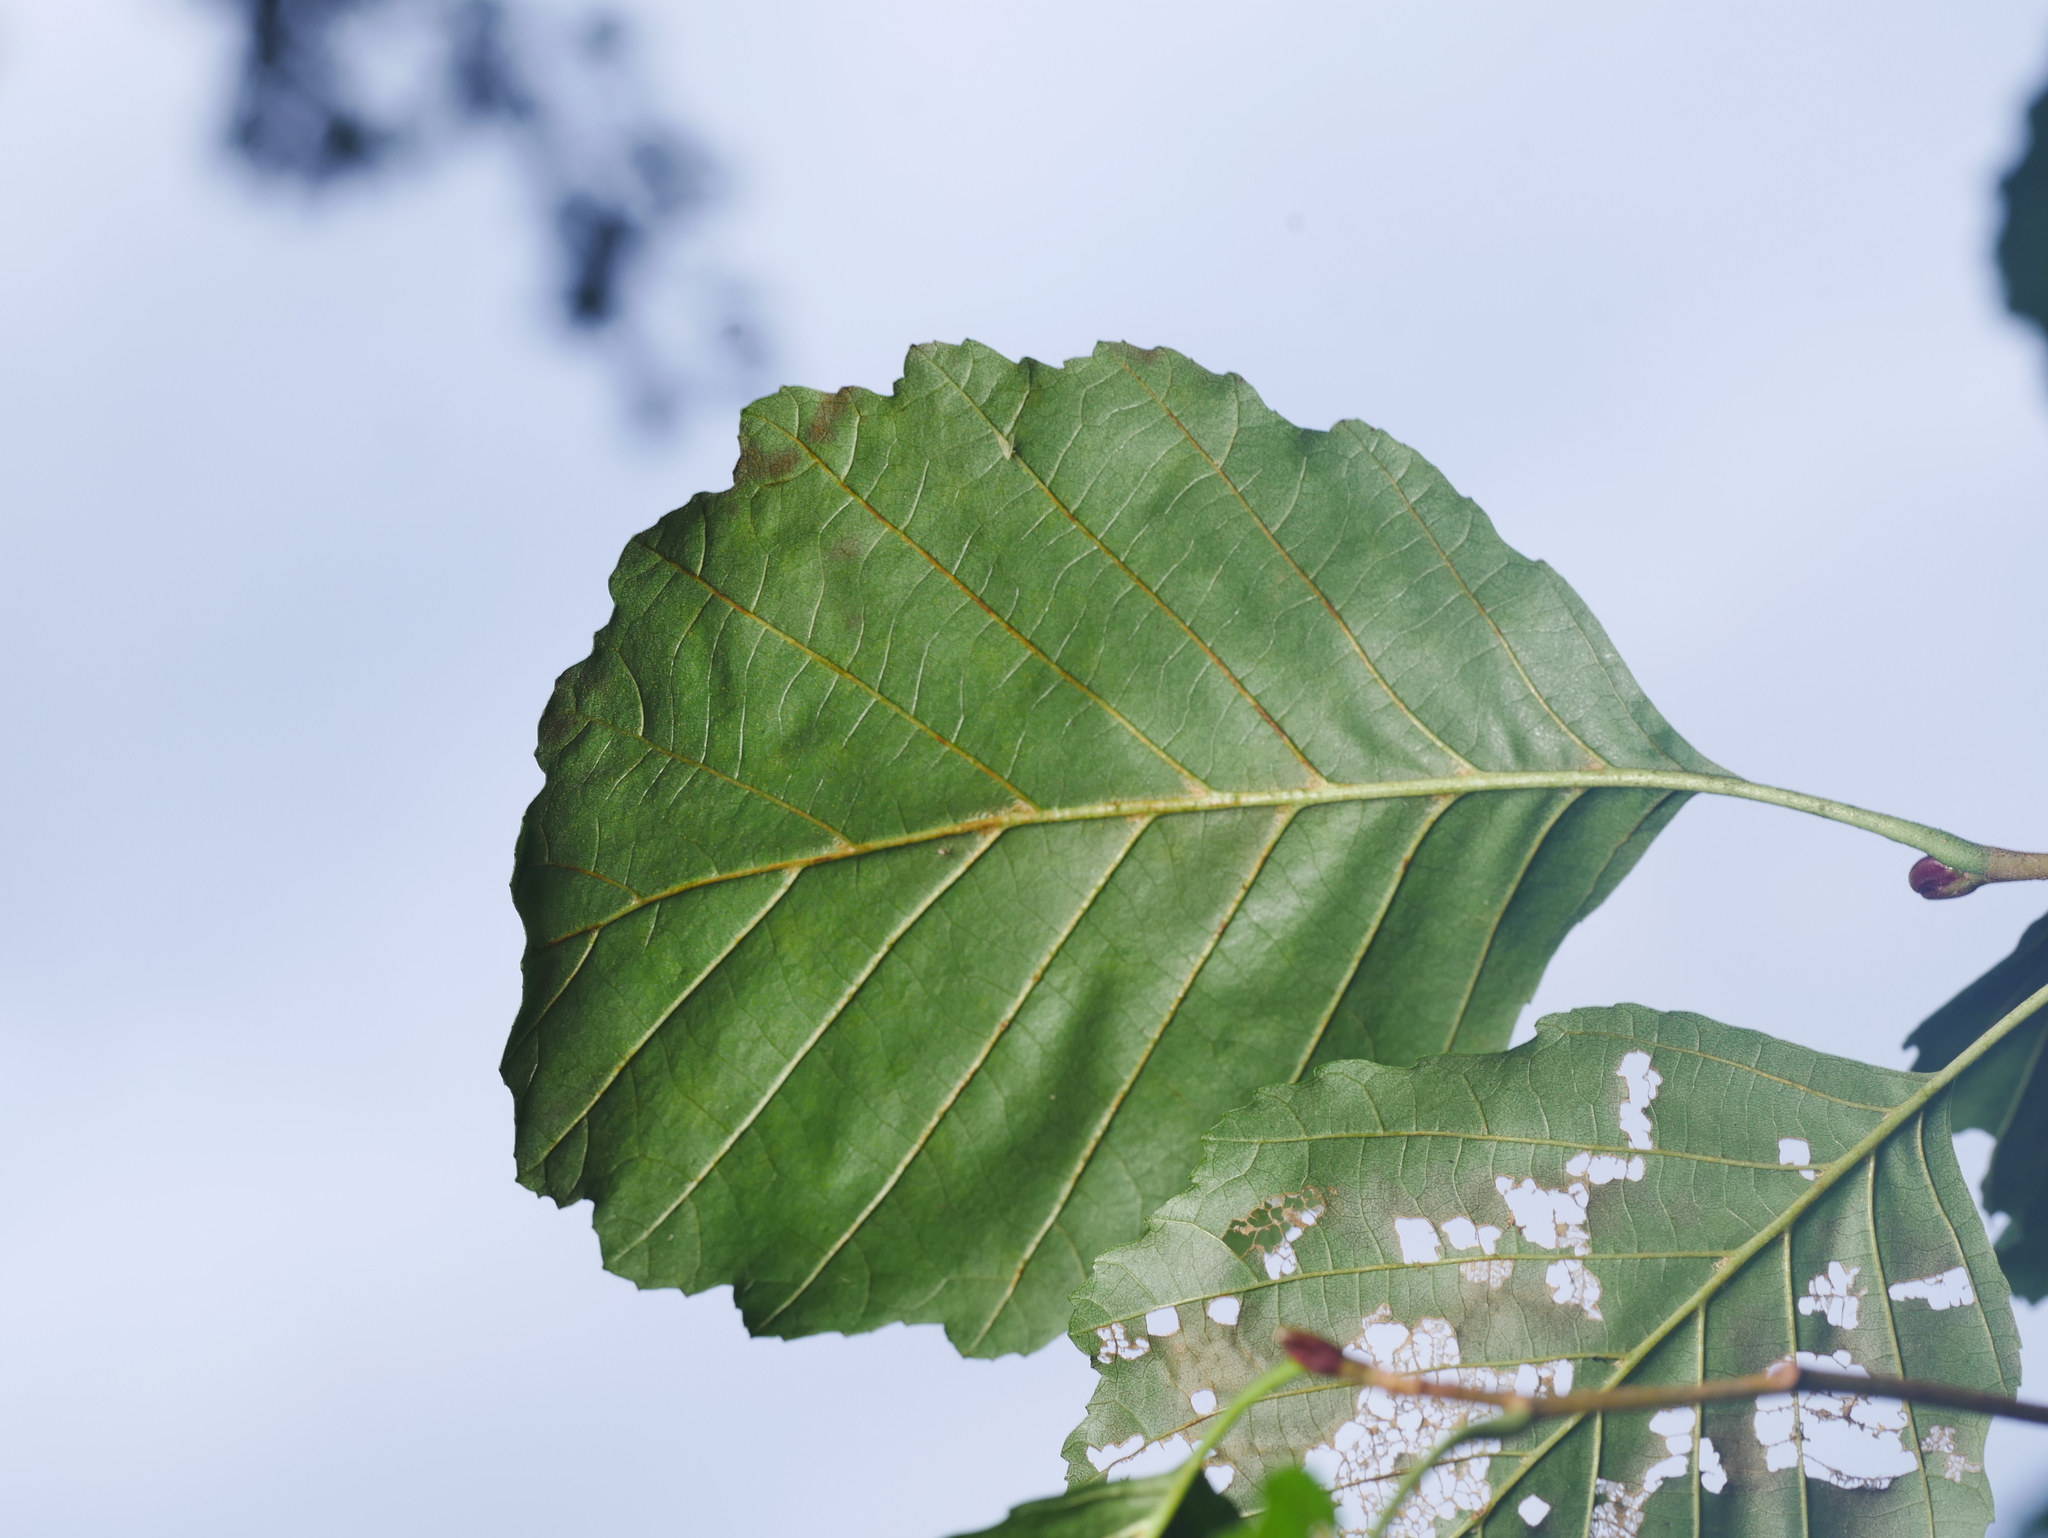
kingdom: Plantae
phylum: Tracheophyta
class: Magnoliopsida
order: Fagales
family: Betulaceae
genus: Alnus
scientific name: Alnus glutinosa
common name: Black alder
